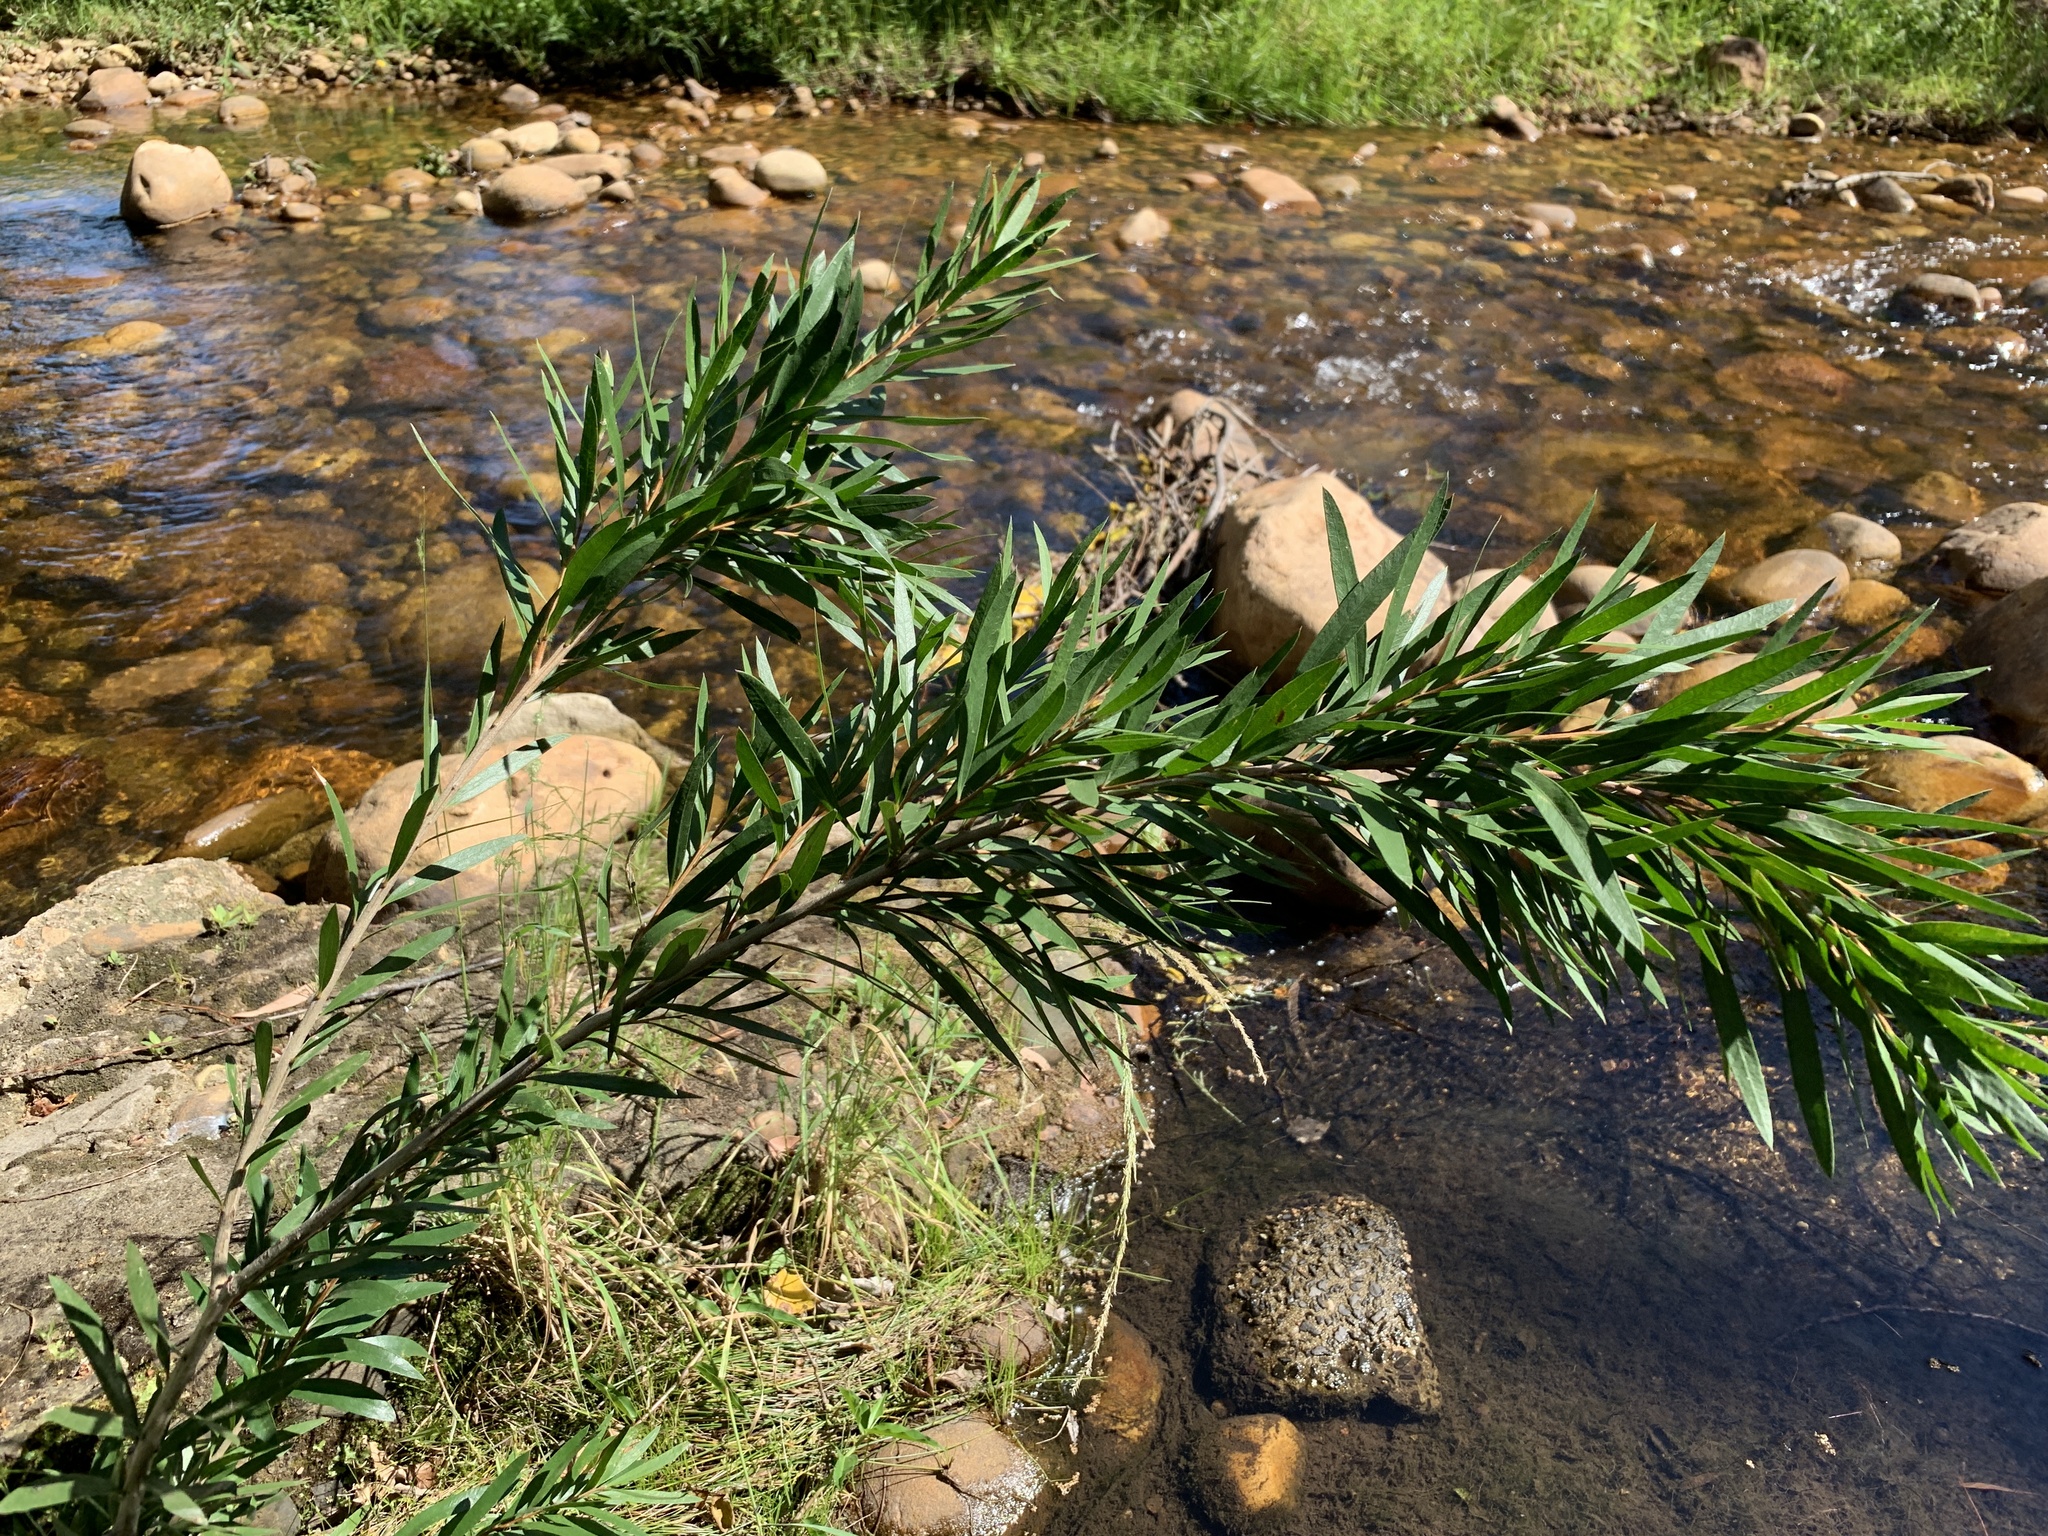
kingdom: Plantae
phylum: Tracheophyta
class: Magnoliopsida
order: Myrtales
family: Myrtaceae
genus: Callistemon
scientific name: Callistemon viminalis
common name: Drooping bottlebrush
